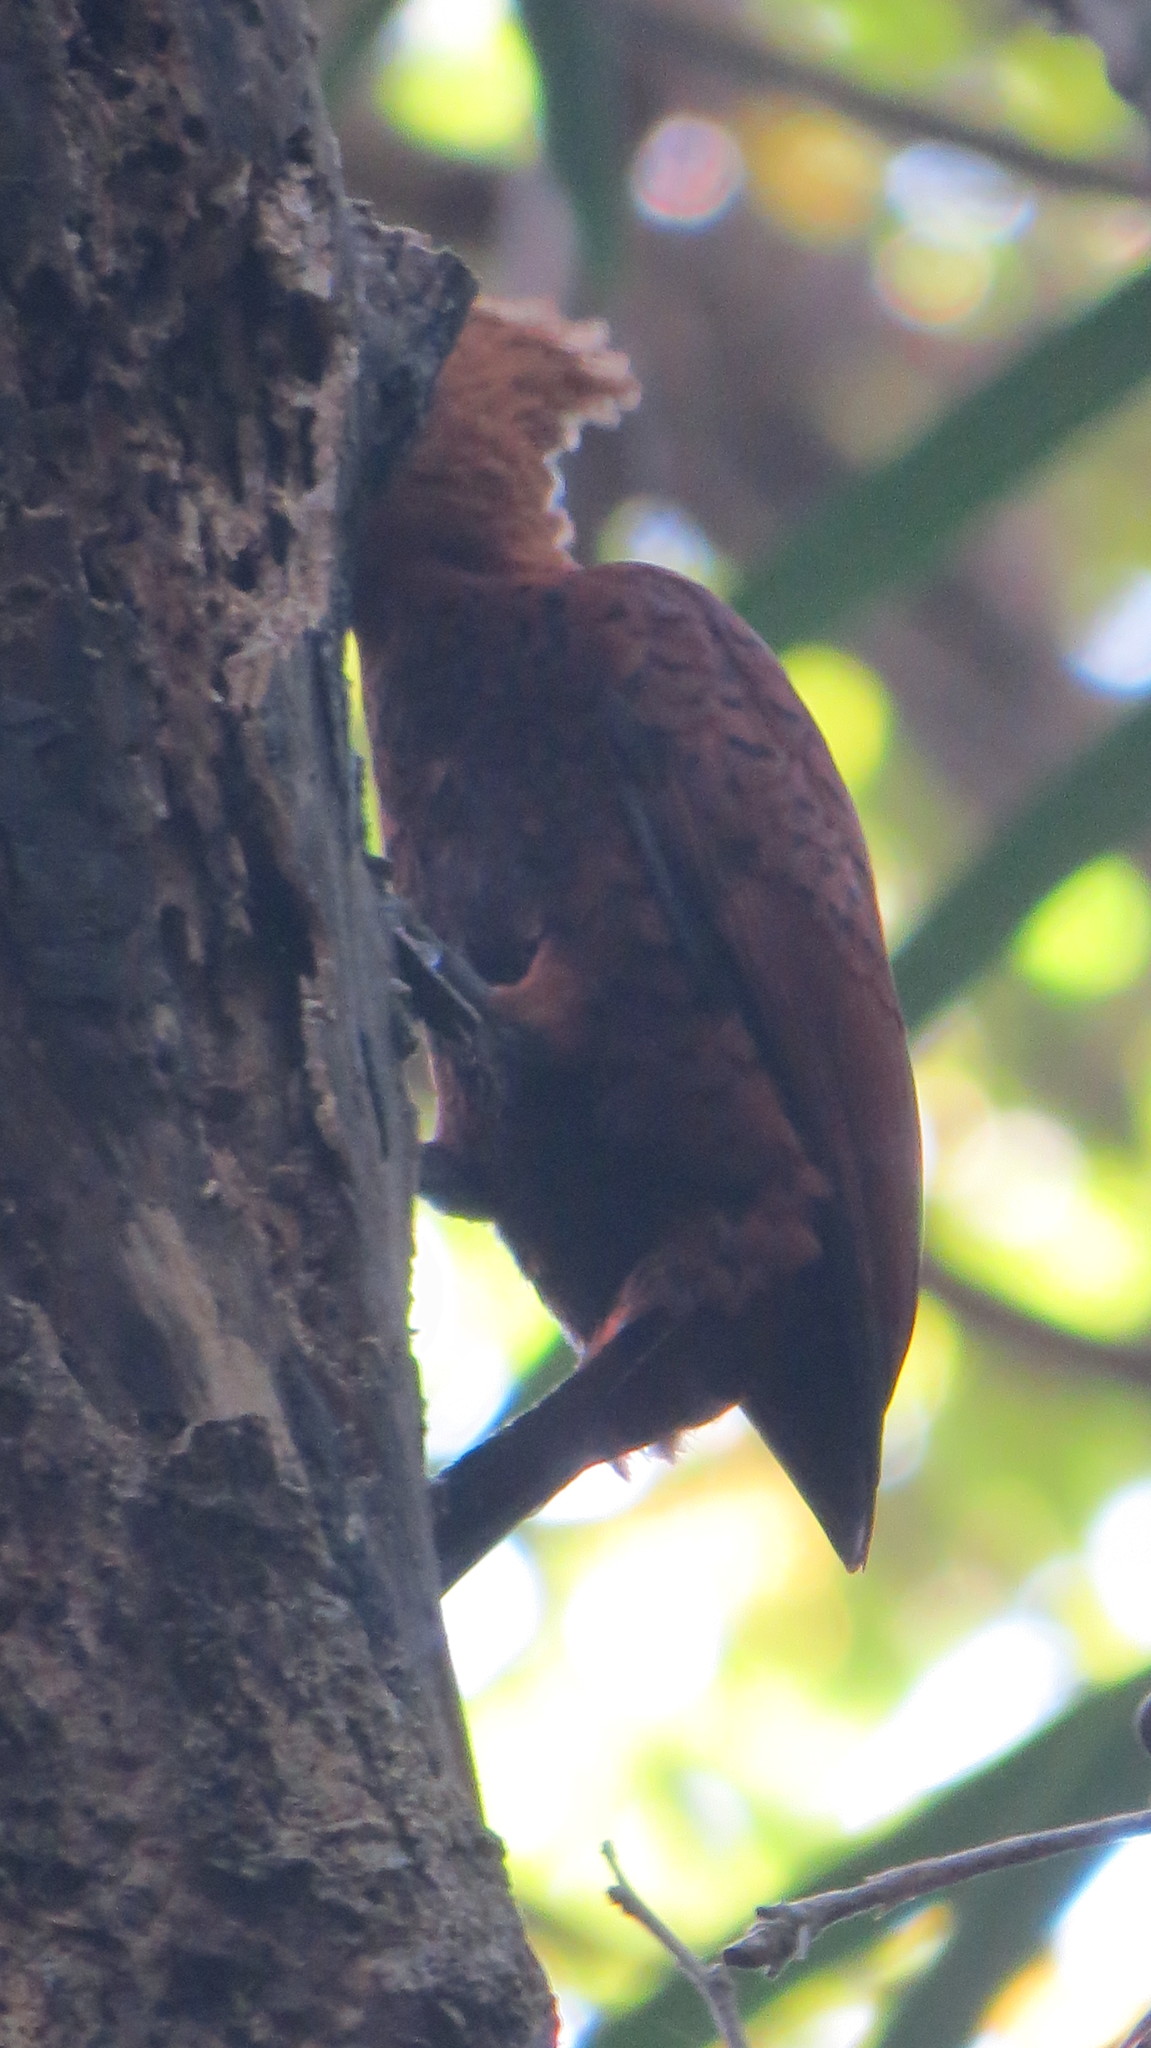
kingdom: Animalia
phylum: Chordata
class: Aves
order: Piciformes
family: Picidae
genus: Celeus
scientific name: Celeus castaneus
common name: Chestnut-colored woodpecker
